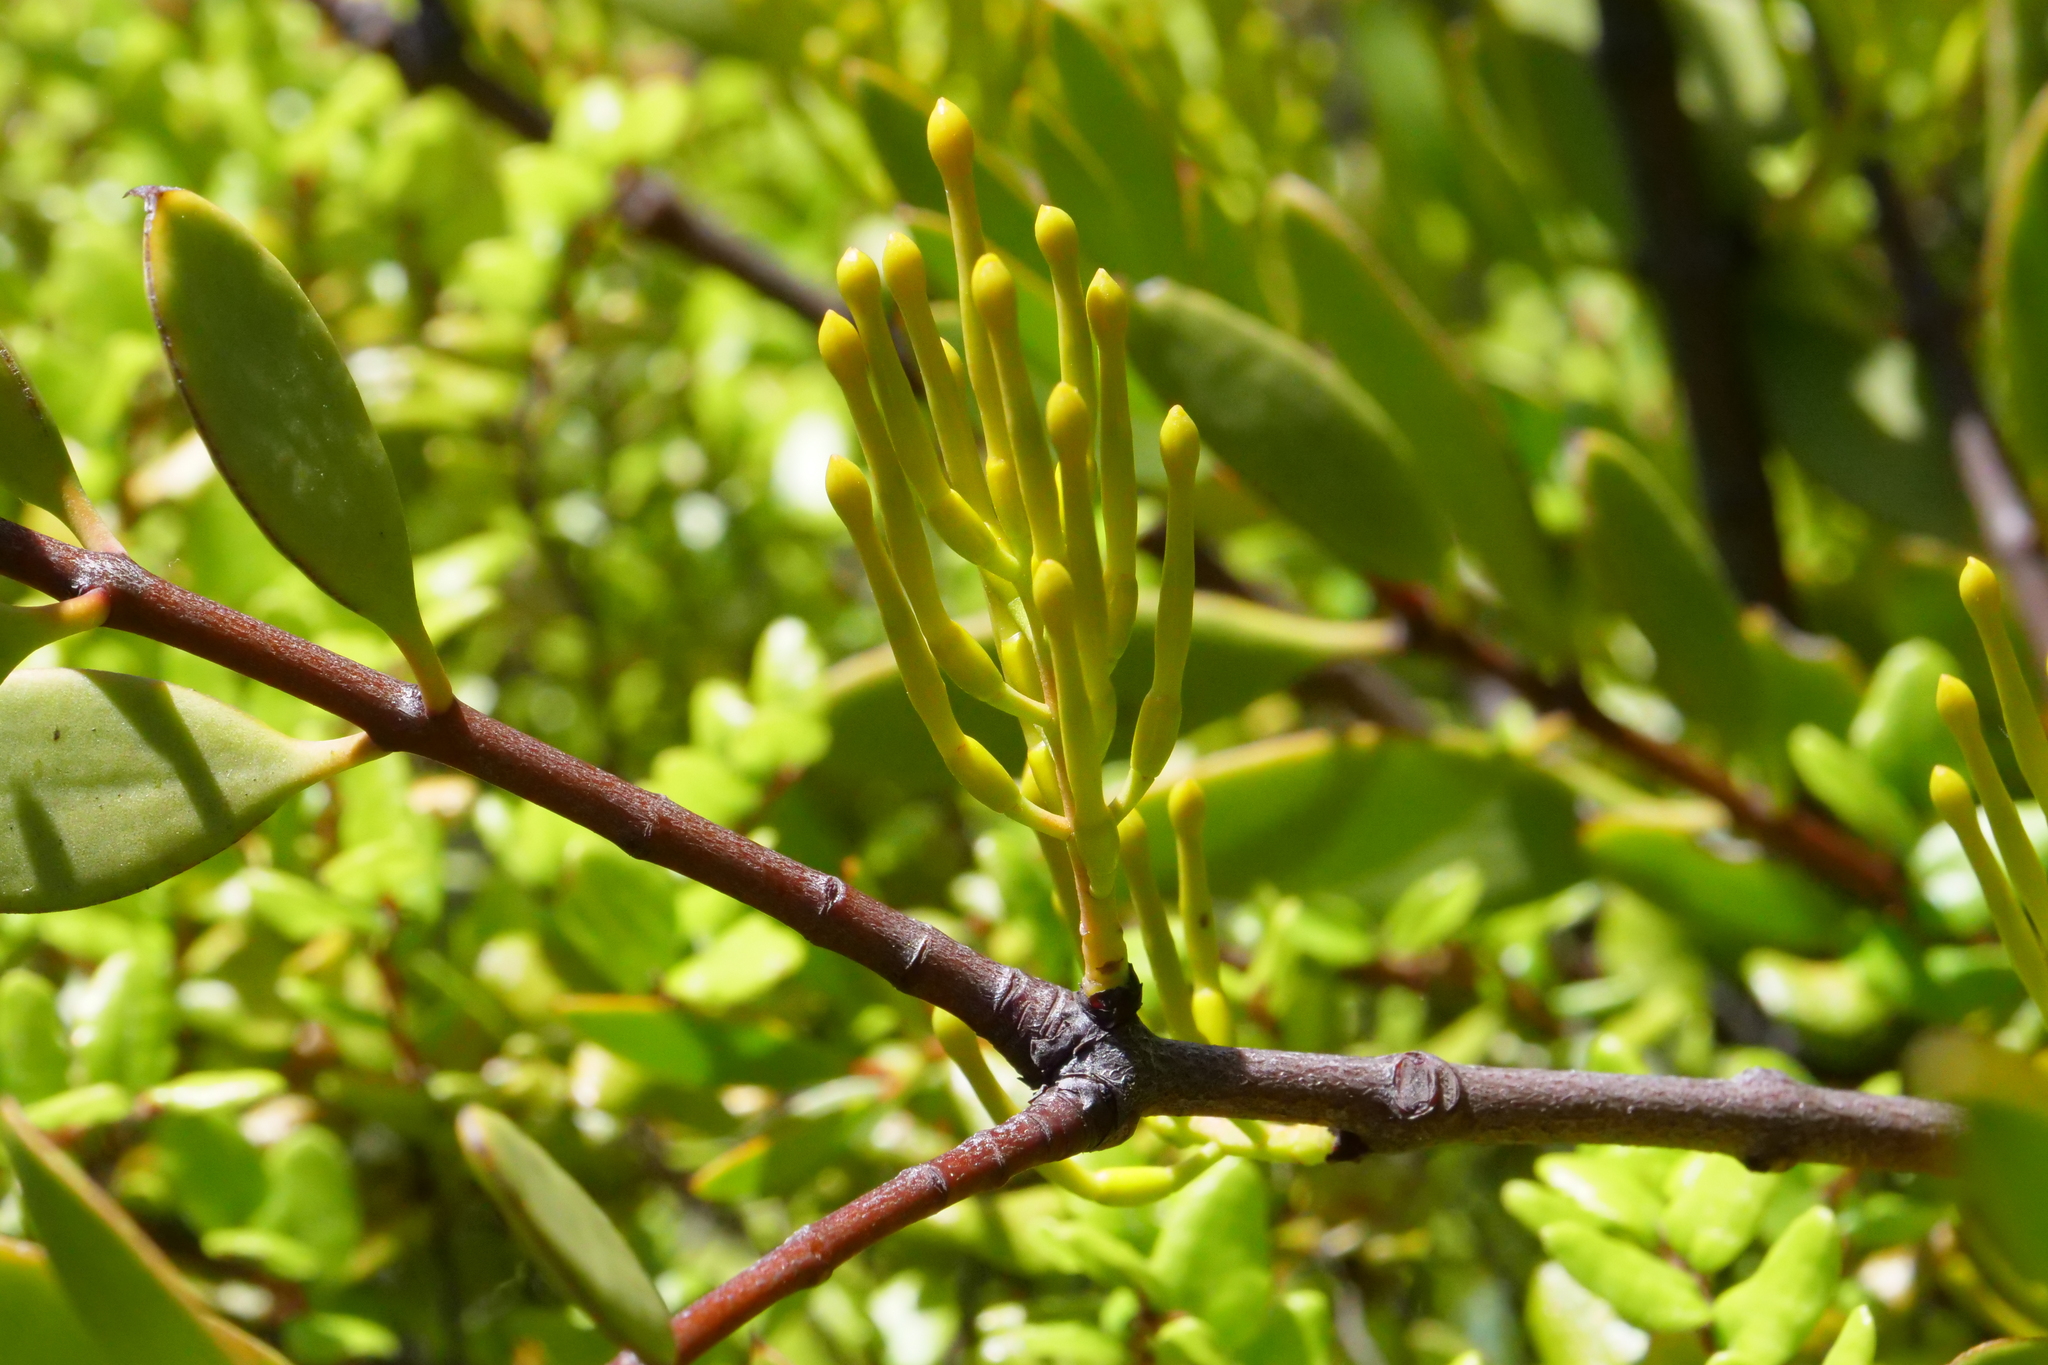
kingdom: Plantae
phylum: Tracheophyta
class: Magnoliopsida
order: Santalales
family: Loranthaceae
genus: Alepis
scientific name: Alepis flavida
